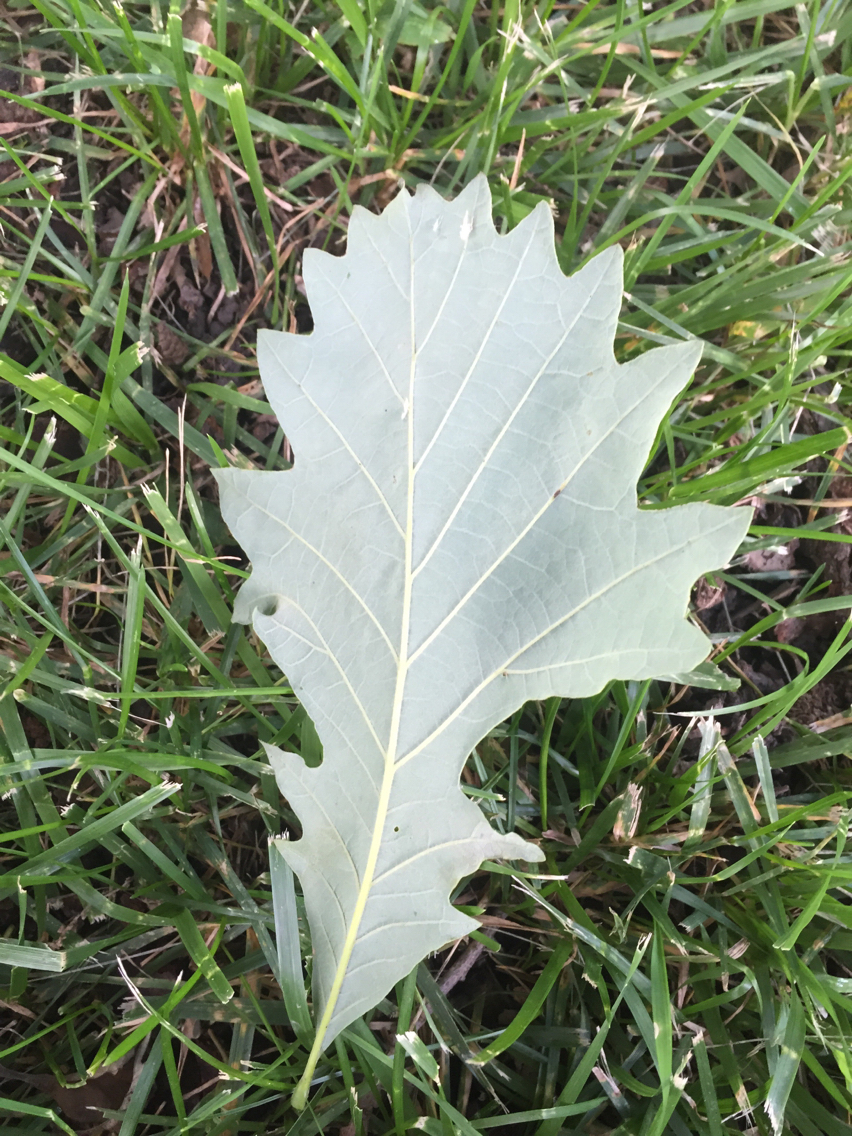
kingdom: Plantae
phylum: Tracheophyta
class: Magnoliopsida
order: Fagales
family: Fagaceae
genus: Quercus
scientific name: Quercus bicolor
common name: Swamp white oak
